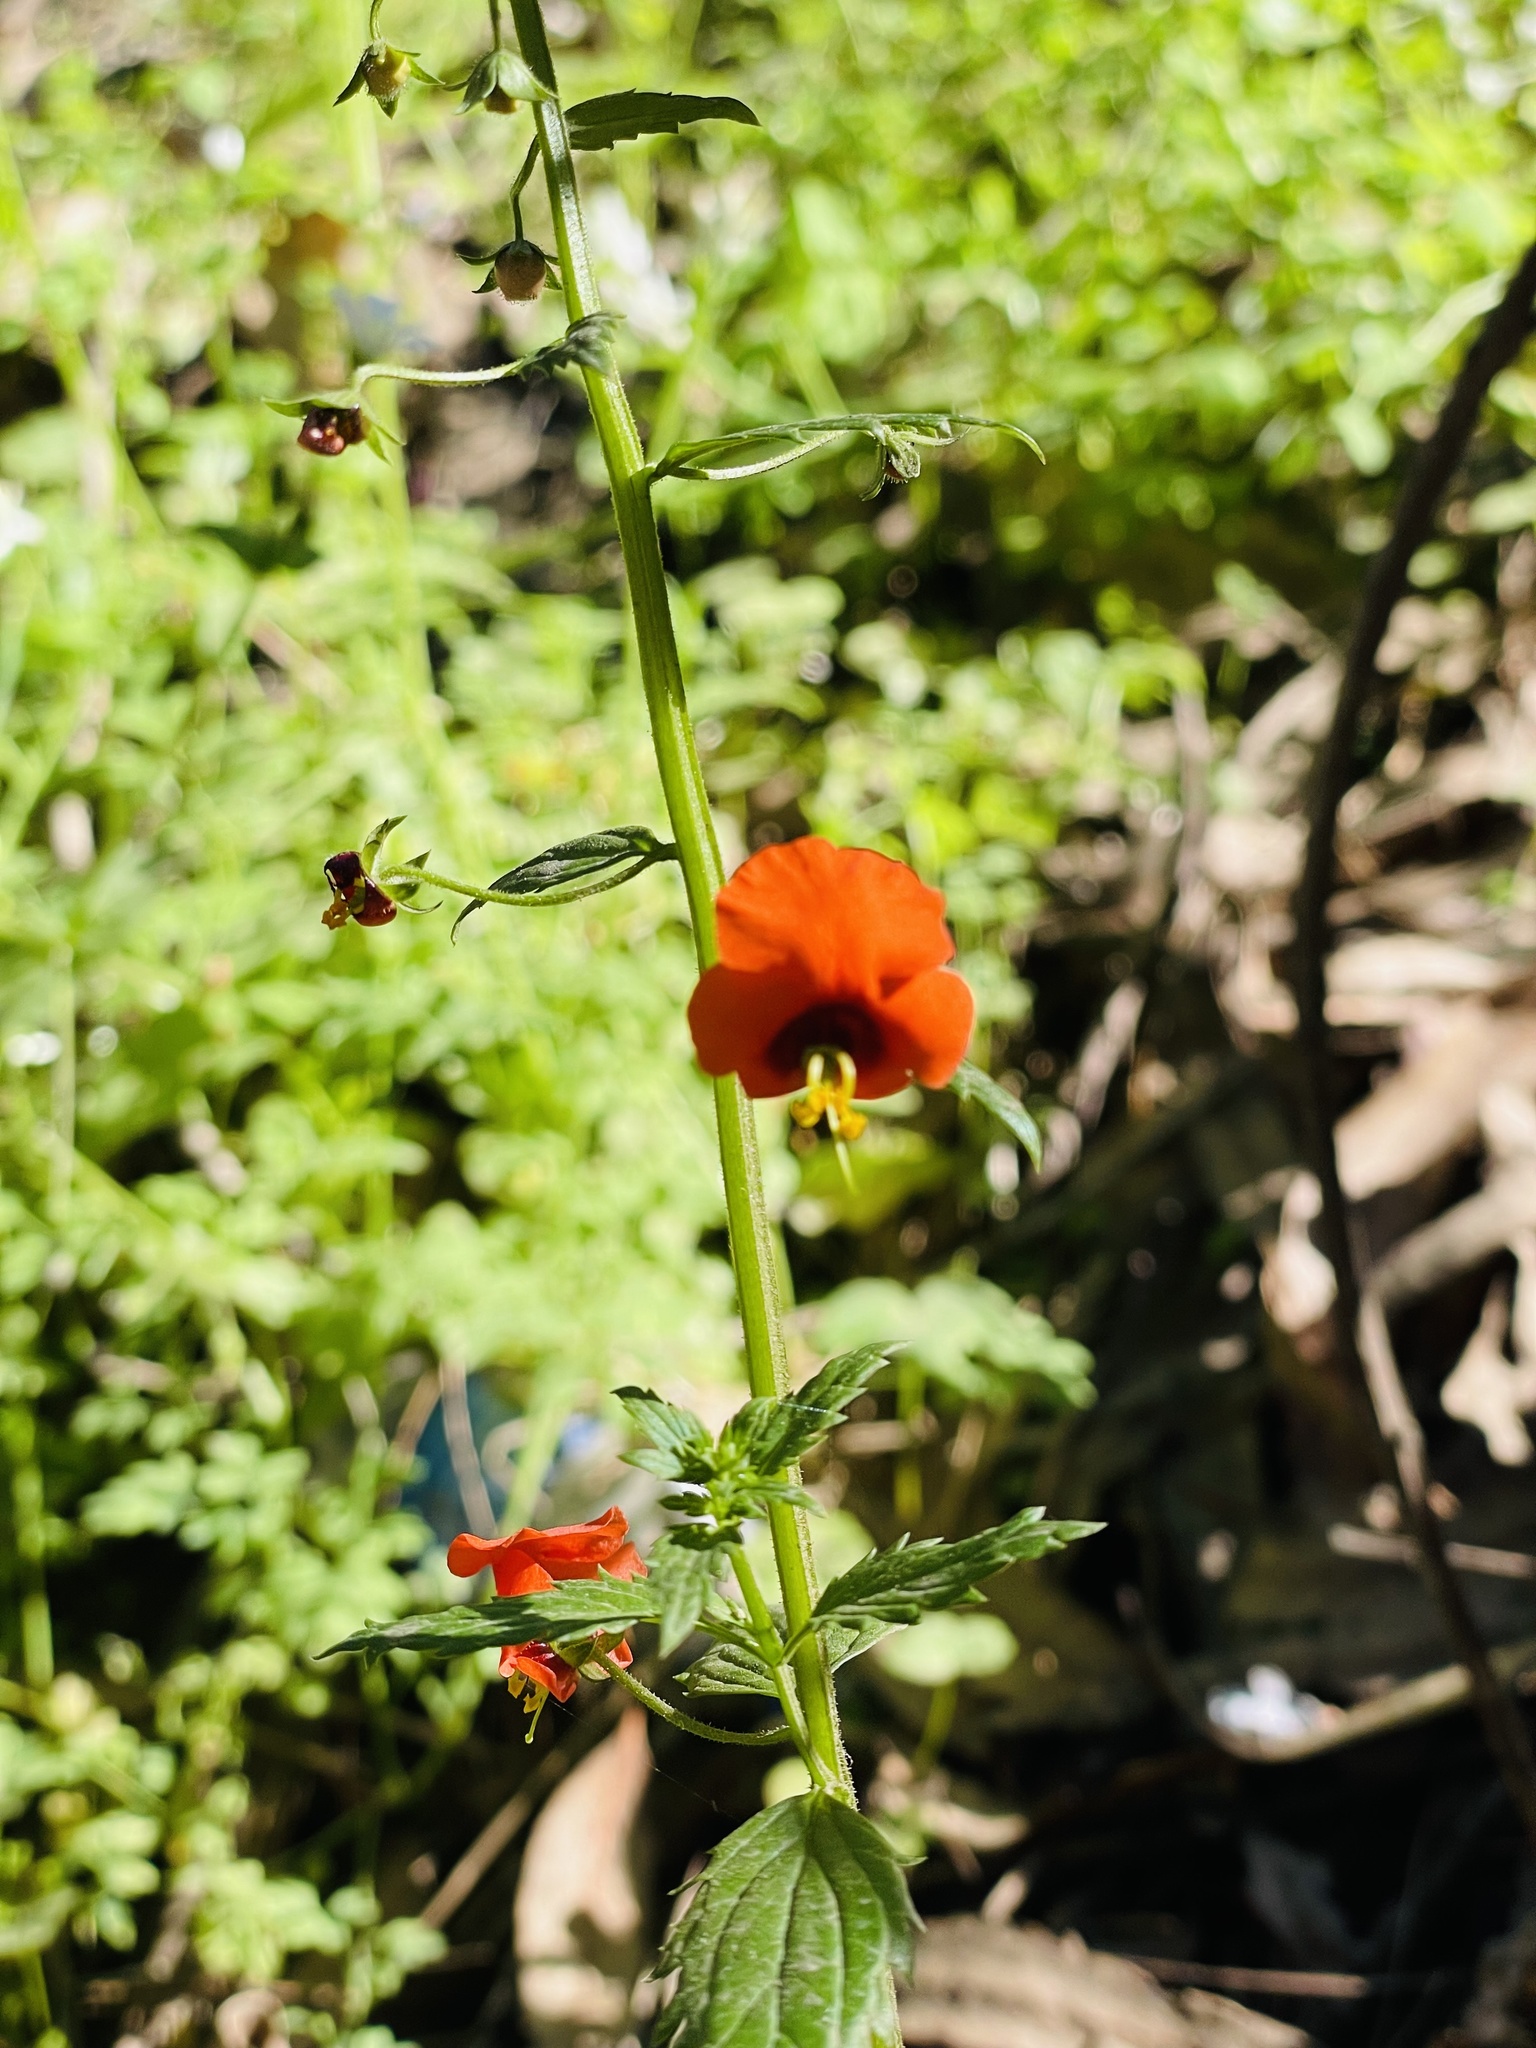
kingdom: Plantae
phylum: Tracheophyta
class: Magnoliopsida
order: Lamiales
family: Scrophulariaceae
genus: Alonsoa
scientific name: Alonsoa meridionalis
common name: Maskflower
